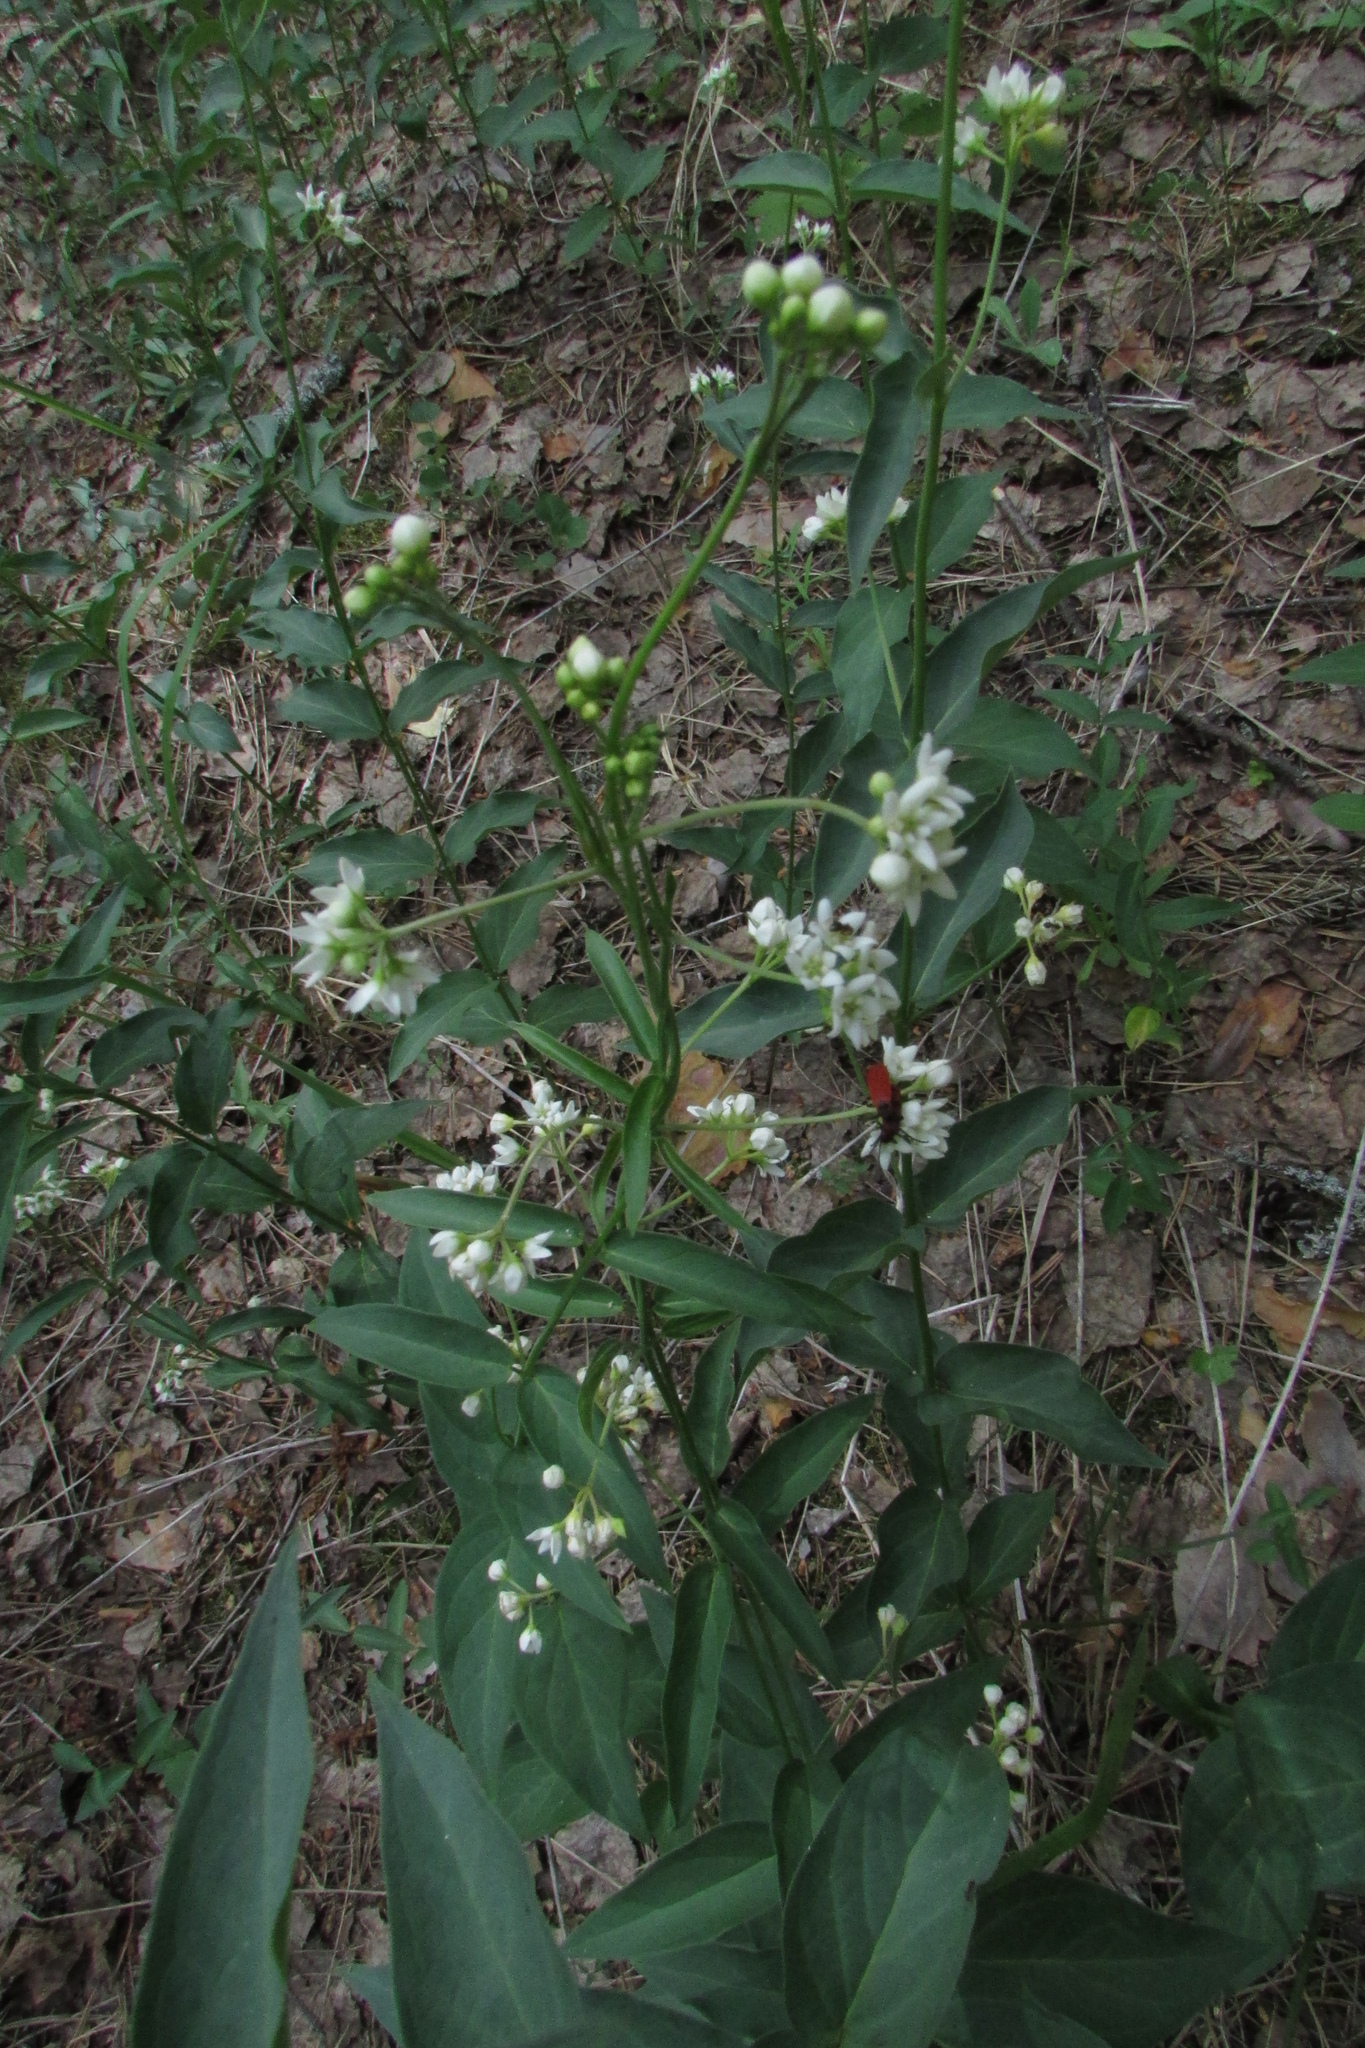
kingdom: Plantae
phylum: Tracheophyta
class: Magnoliopsida
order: Gentianales
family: Apocynaceae
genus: Vincetoxicum
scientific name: Vincetoxicum hirundinaria
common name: White swallowwort
